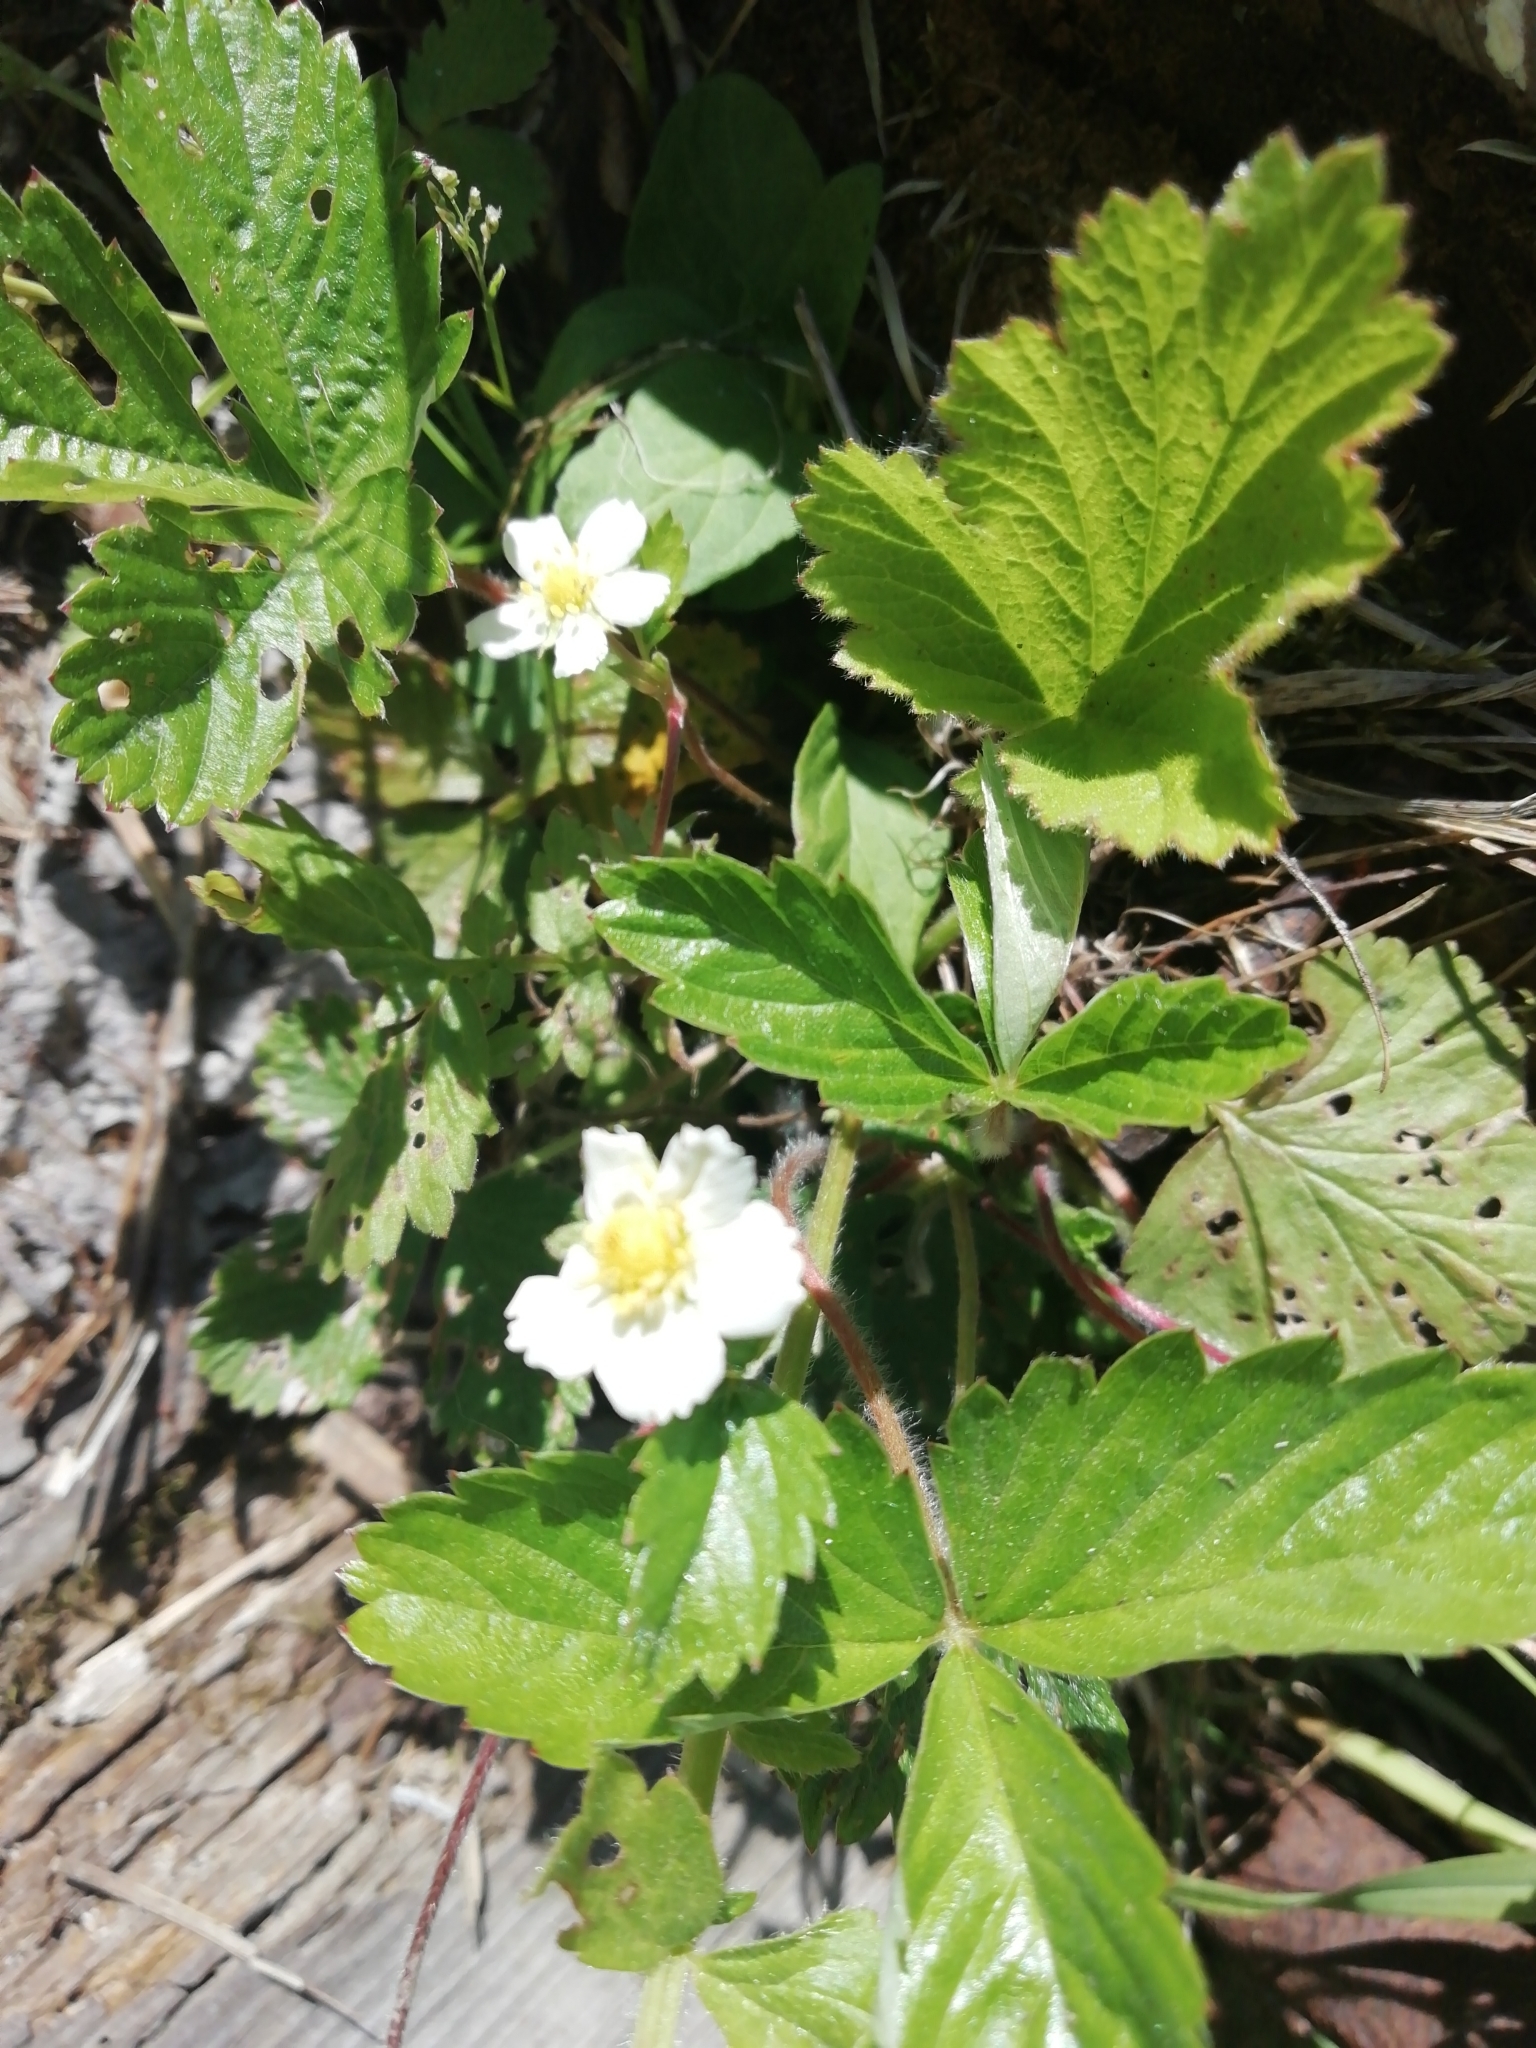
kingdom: Plantae
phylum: Tracheophyta
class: Magnoliopsida
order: Rosales
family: Rosaceae
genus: Fragaria
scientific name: Fragaria vesca
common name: Wild strawberry
